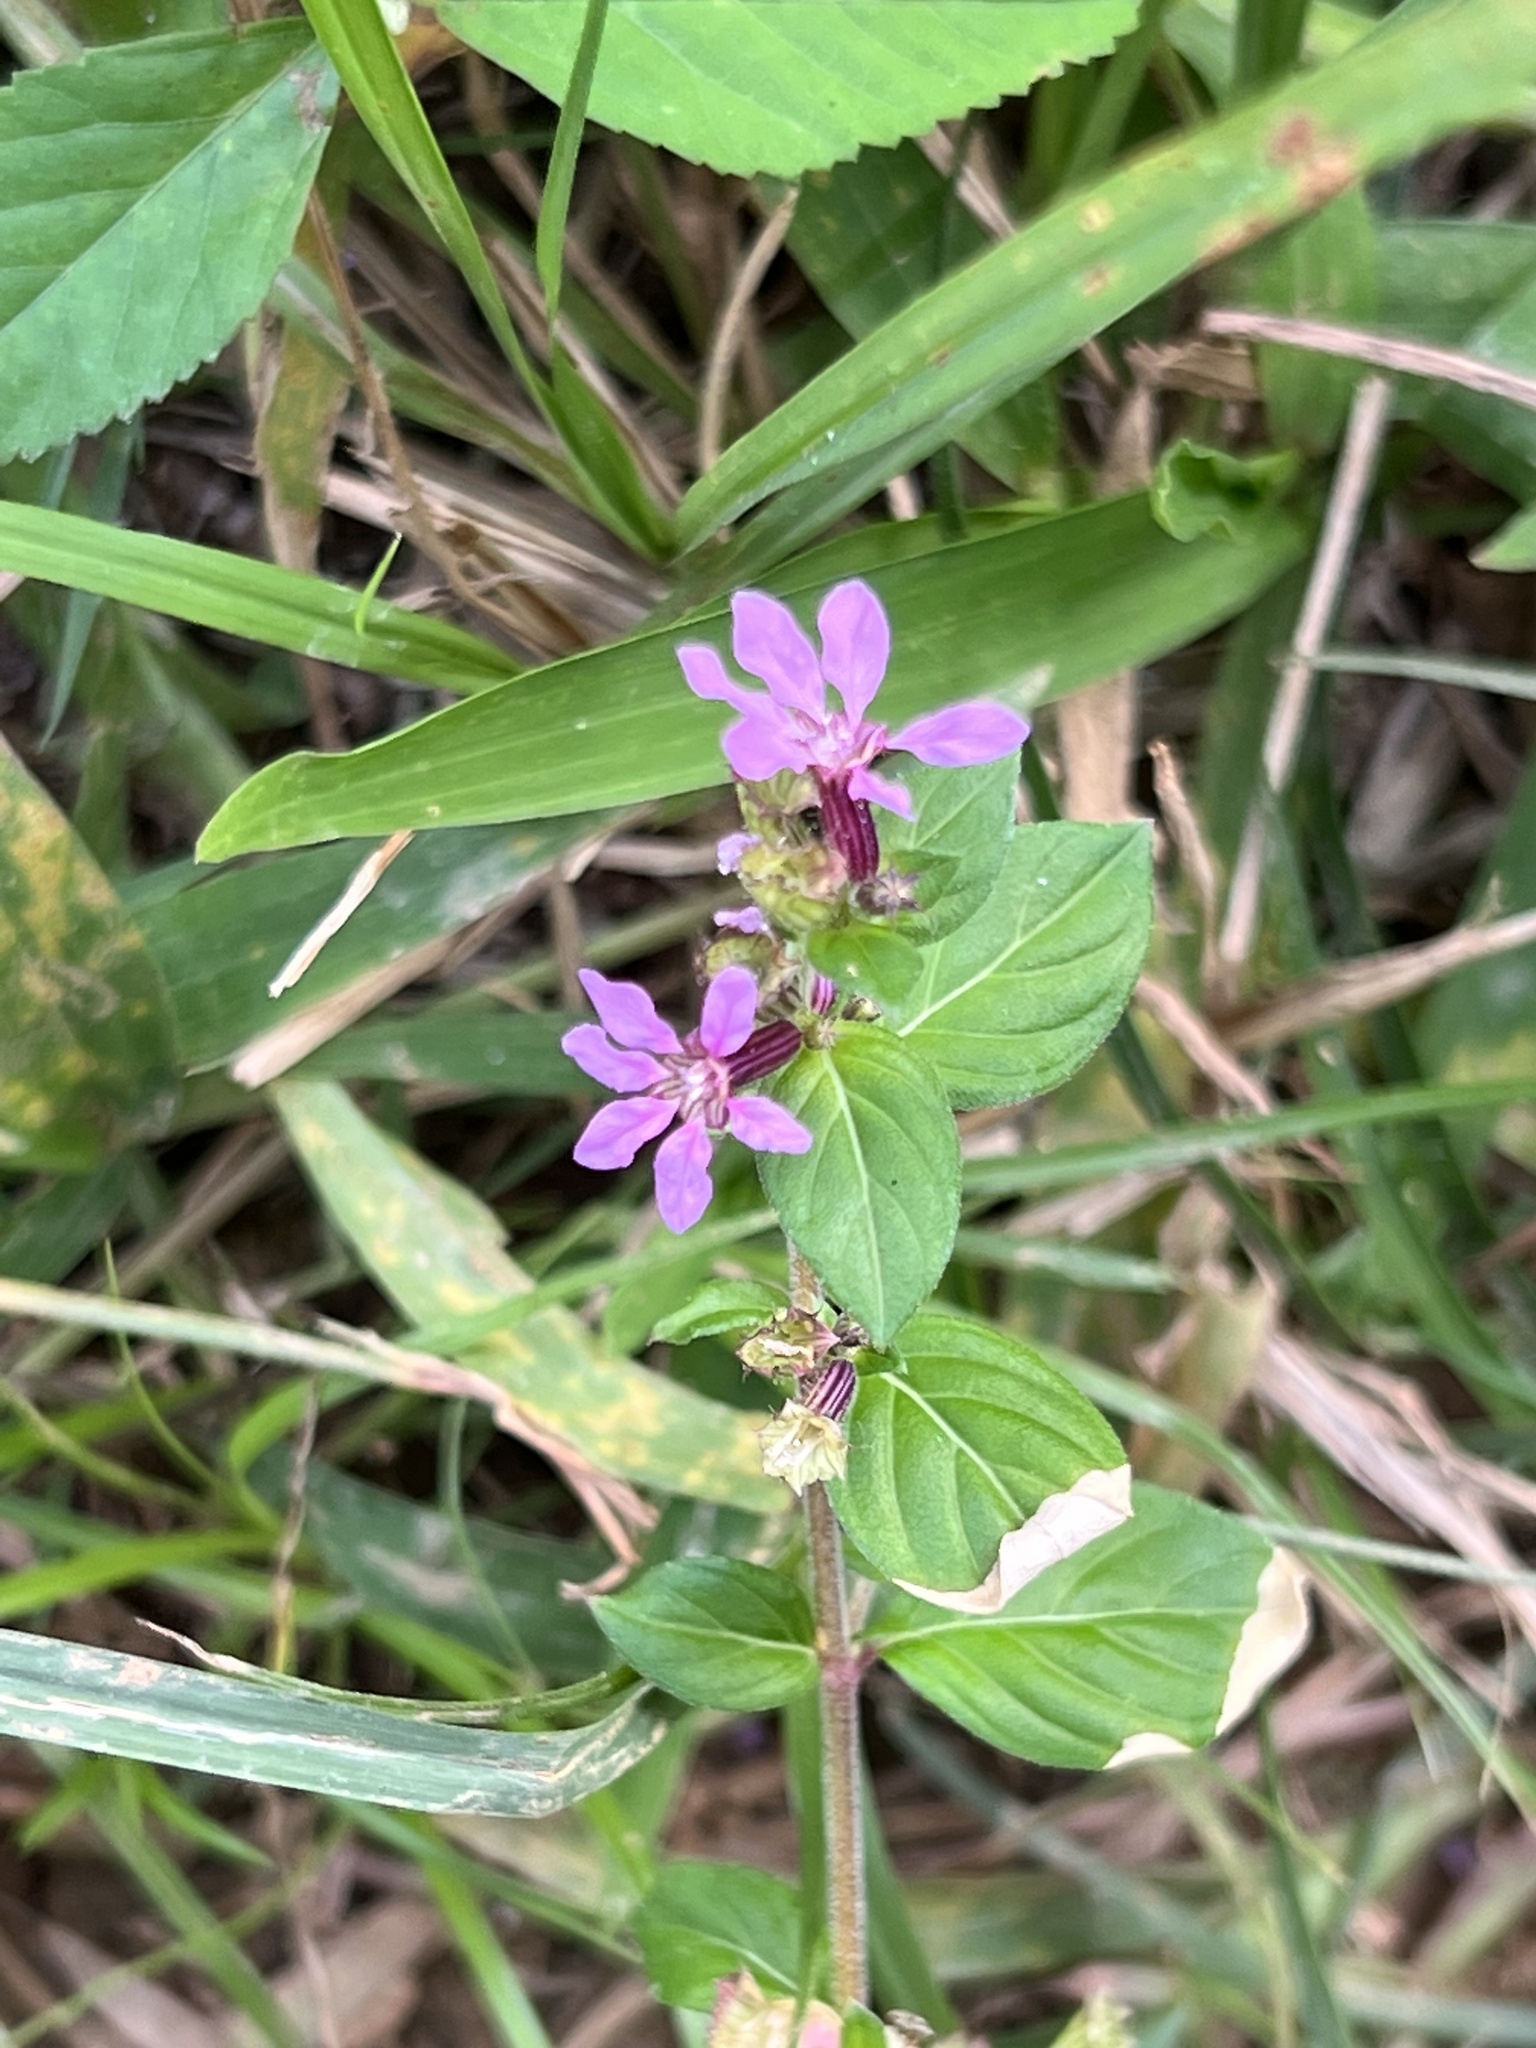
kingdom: Plantae
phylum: Tracheophyta
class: Magnoliopsida
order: Myrtales
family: Lythraceae
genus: Cuphea
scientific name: Cuphea strigulosa
